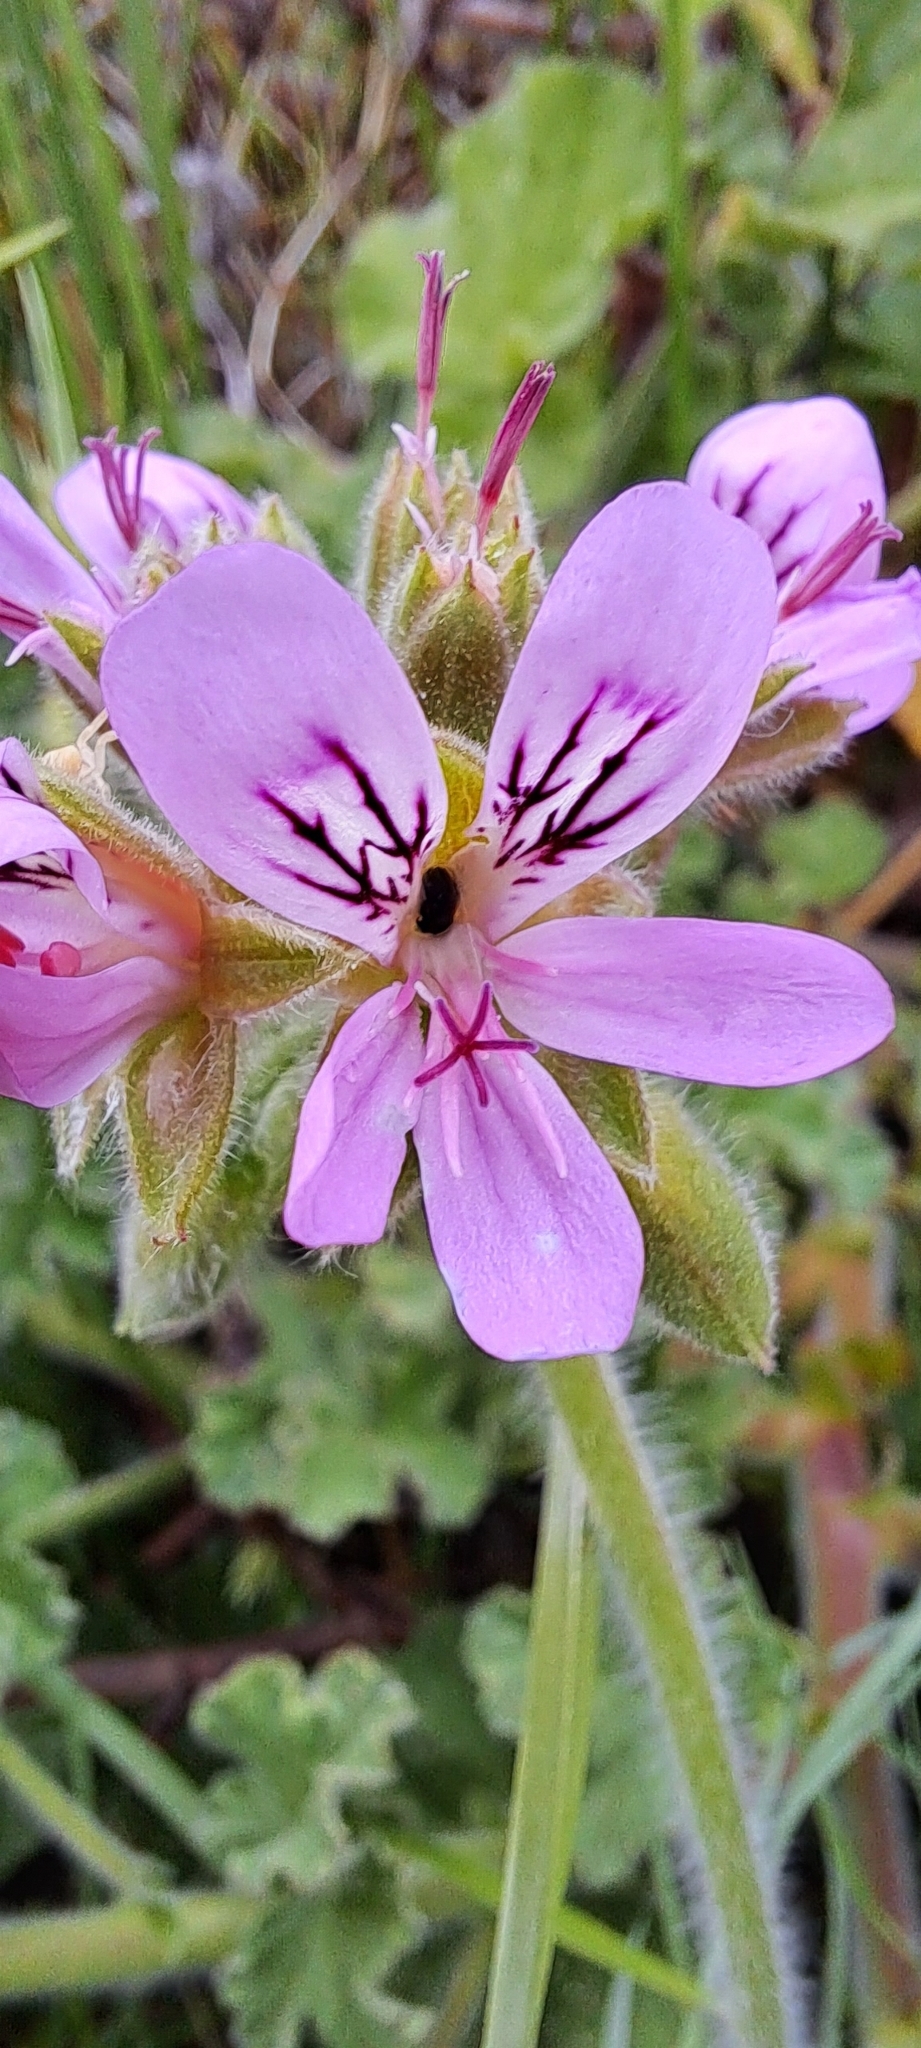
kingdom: Plantae
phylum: Tracheophyta
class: Magnoliopsida
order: Geraniales
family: Geraniaceae
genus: Pelargonium
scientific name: Pelargonium capitatum
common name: Rose scented geranium
